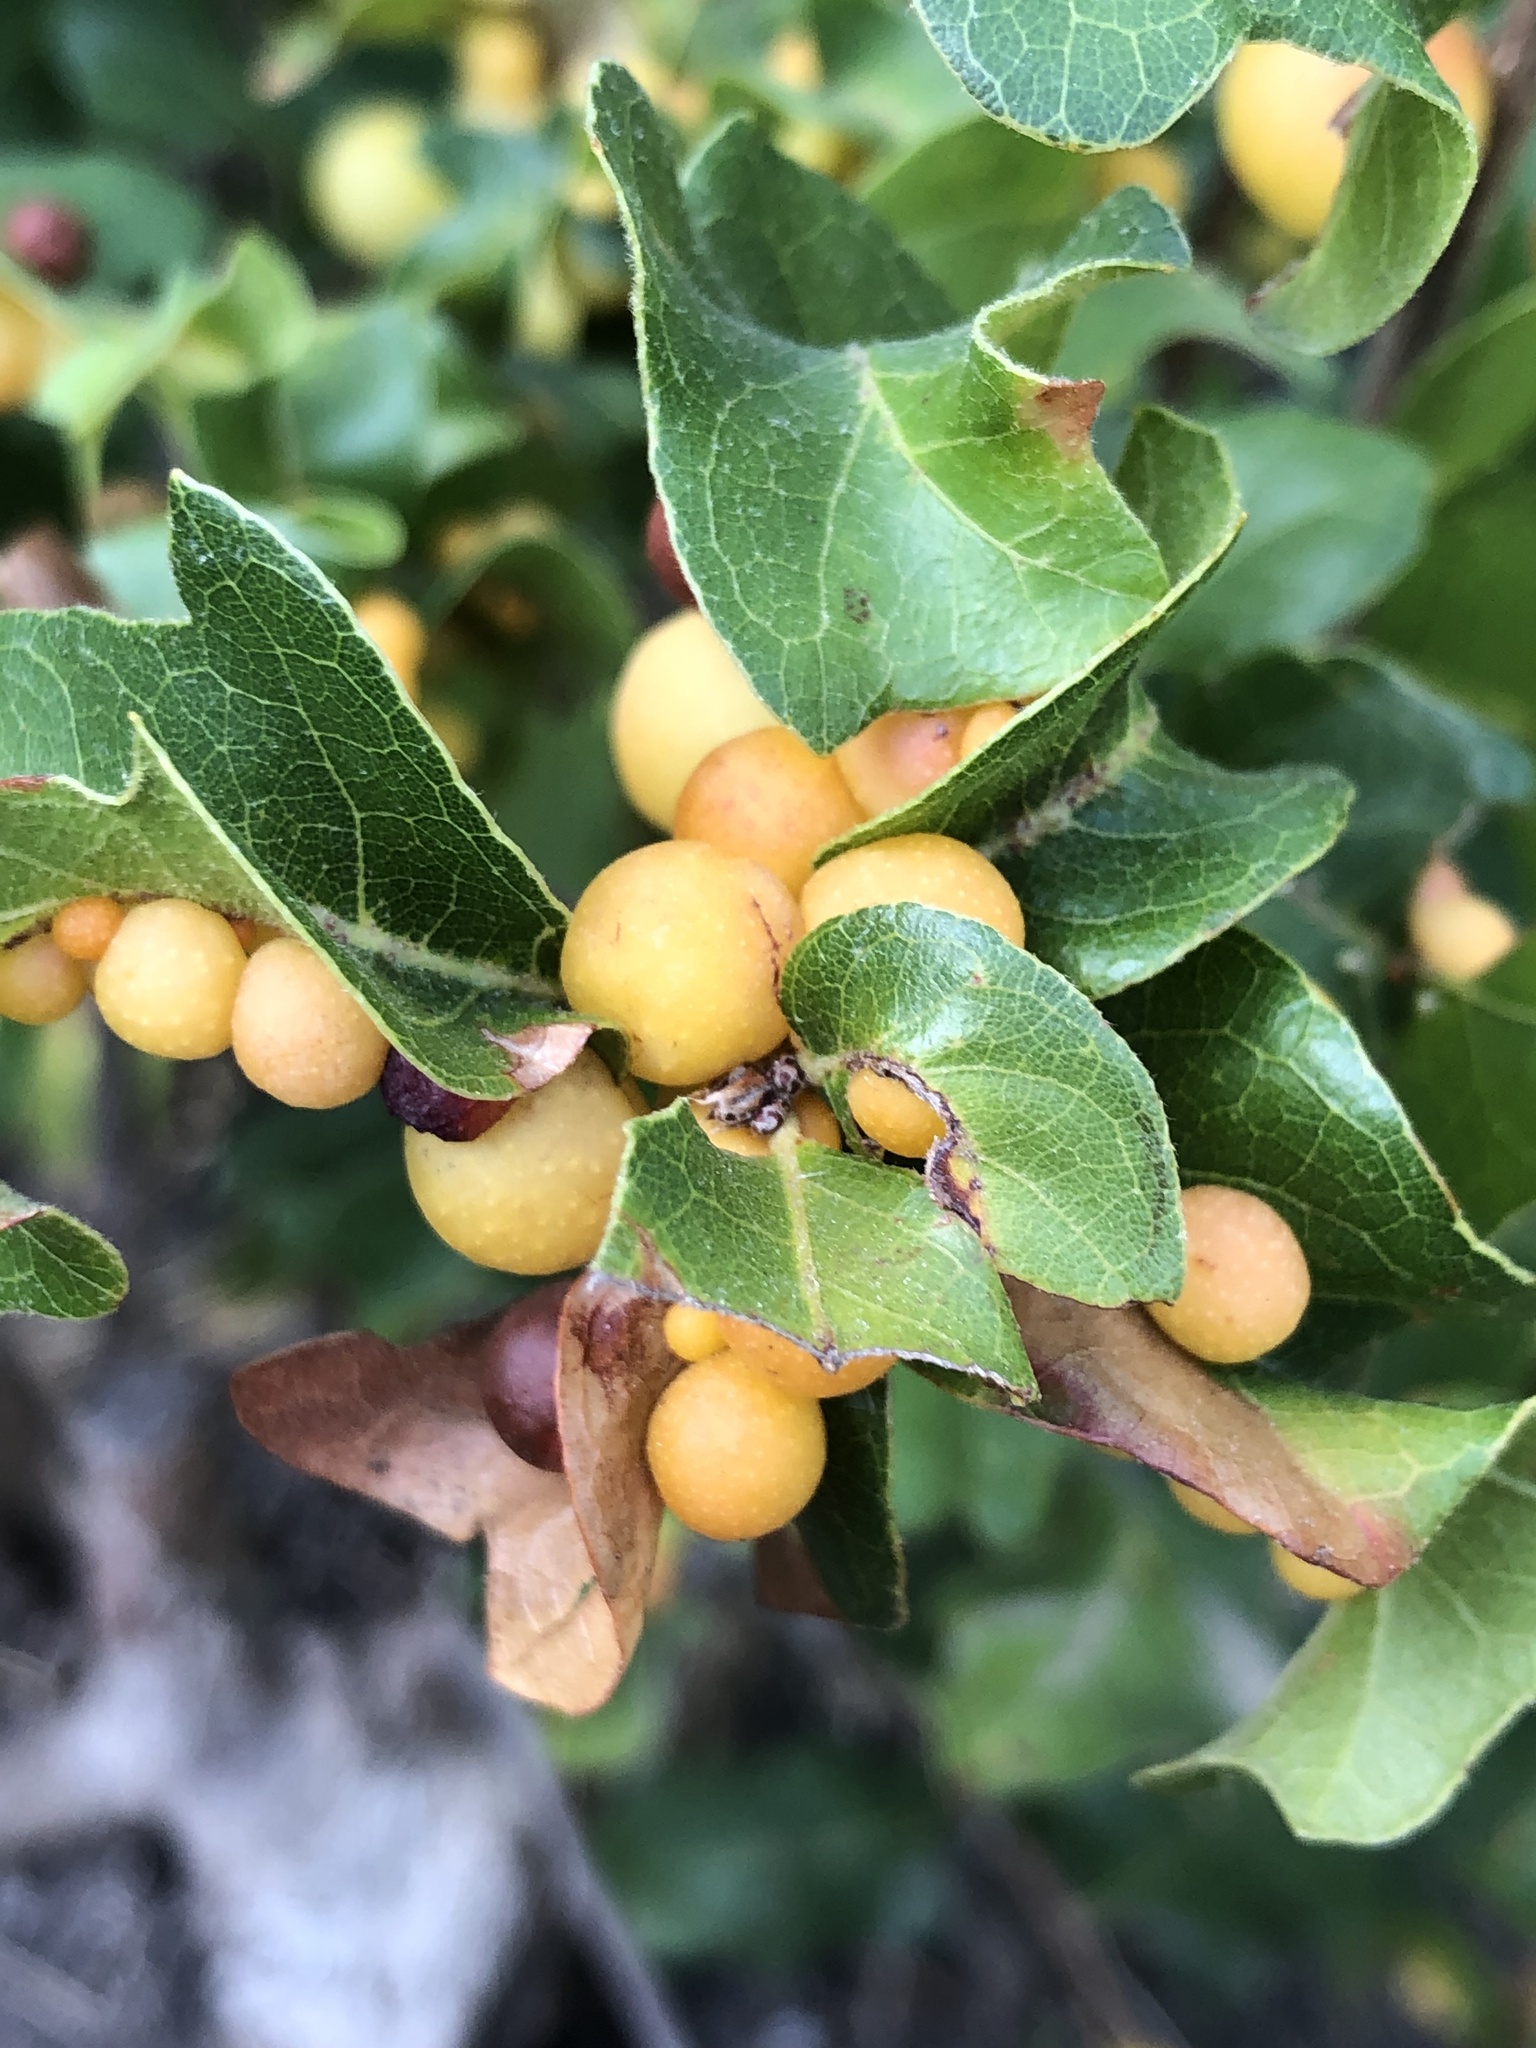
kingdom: Animalia
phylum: Arthropoda
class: Insecta
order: Hymenoptera
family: Cynipidae
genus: Trigonaspis
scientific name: Trigonaspis
